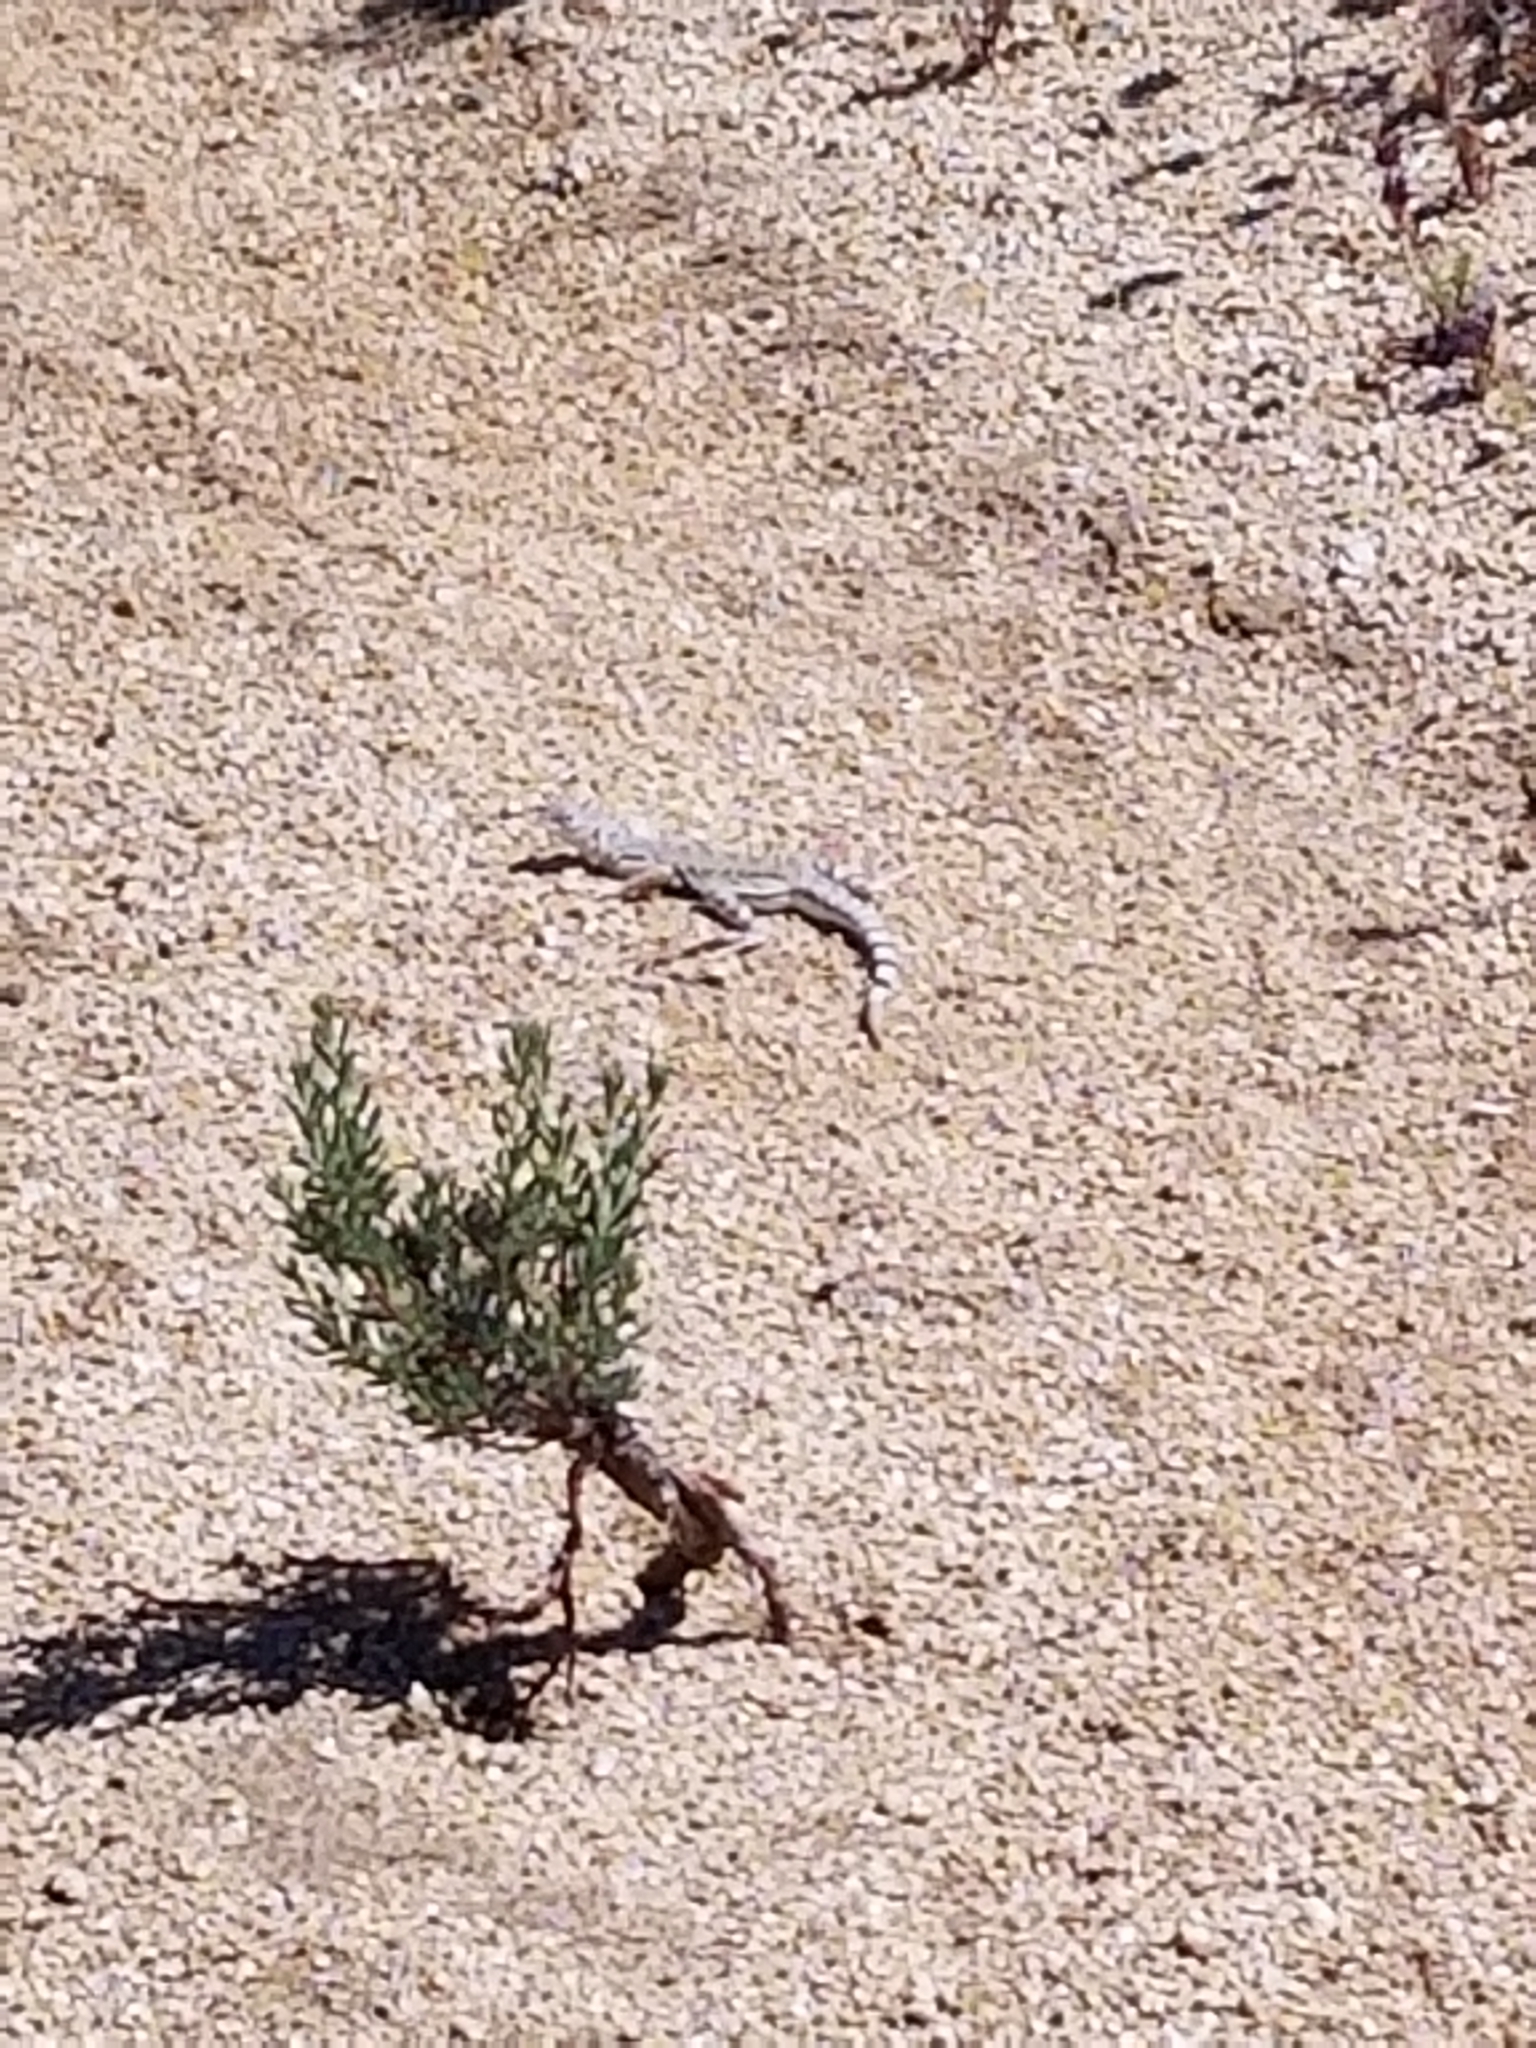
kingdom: Animalia
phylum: Chordata
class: Squamata
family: Phrynosomatidae
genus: Callisaurus
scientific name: Callisaurus draconoides
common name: Zebra-tailed lizard
